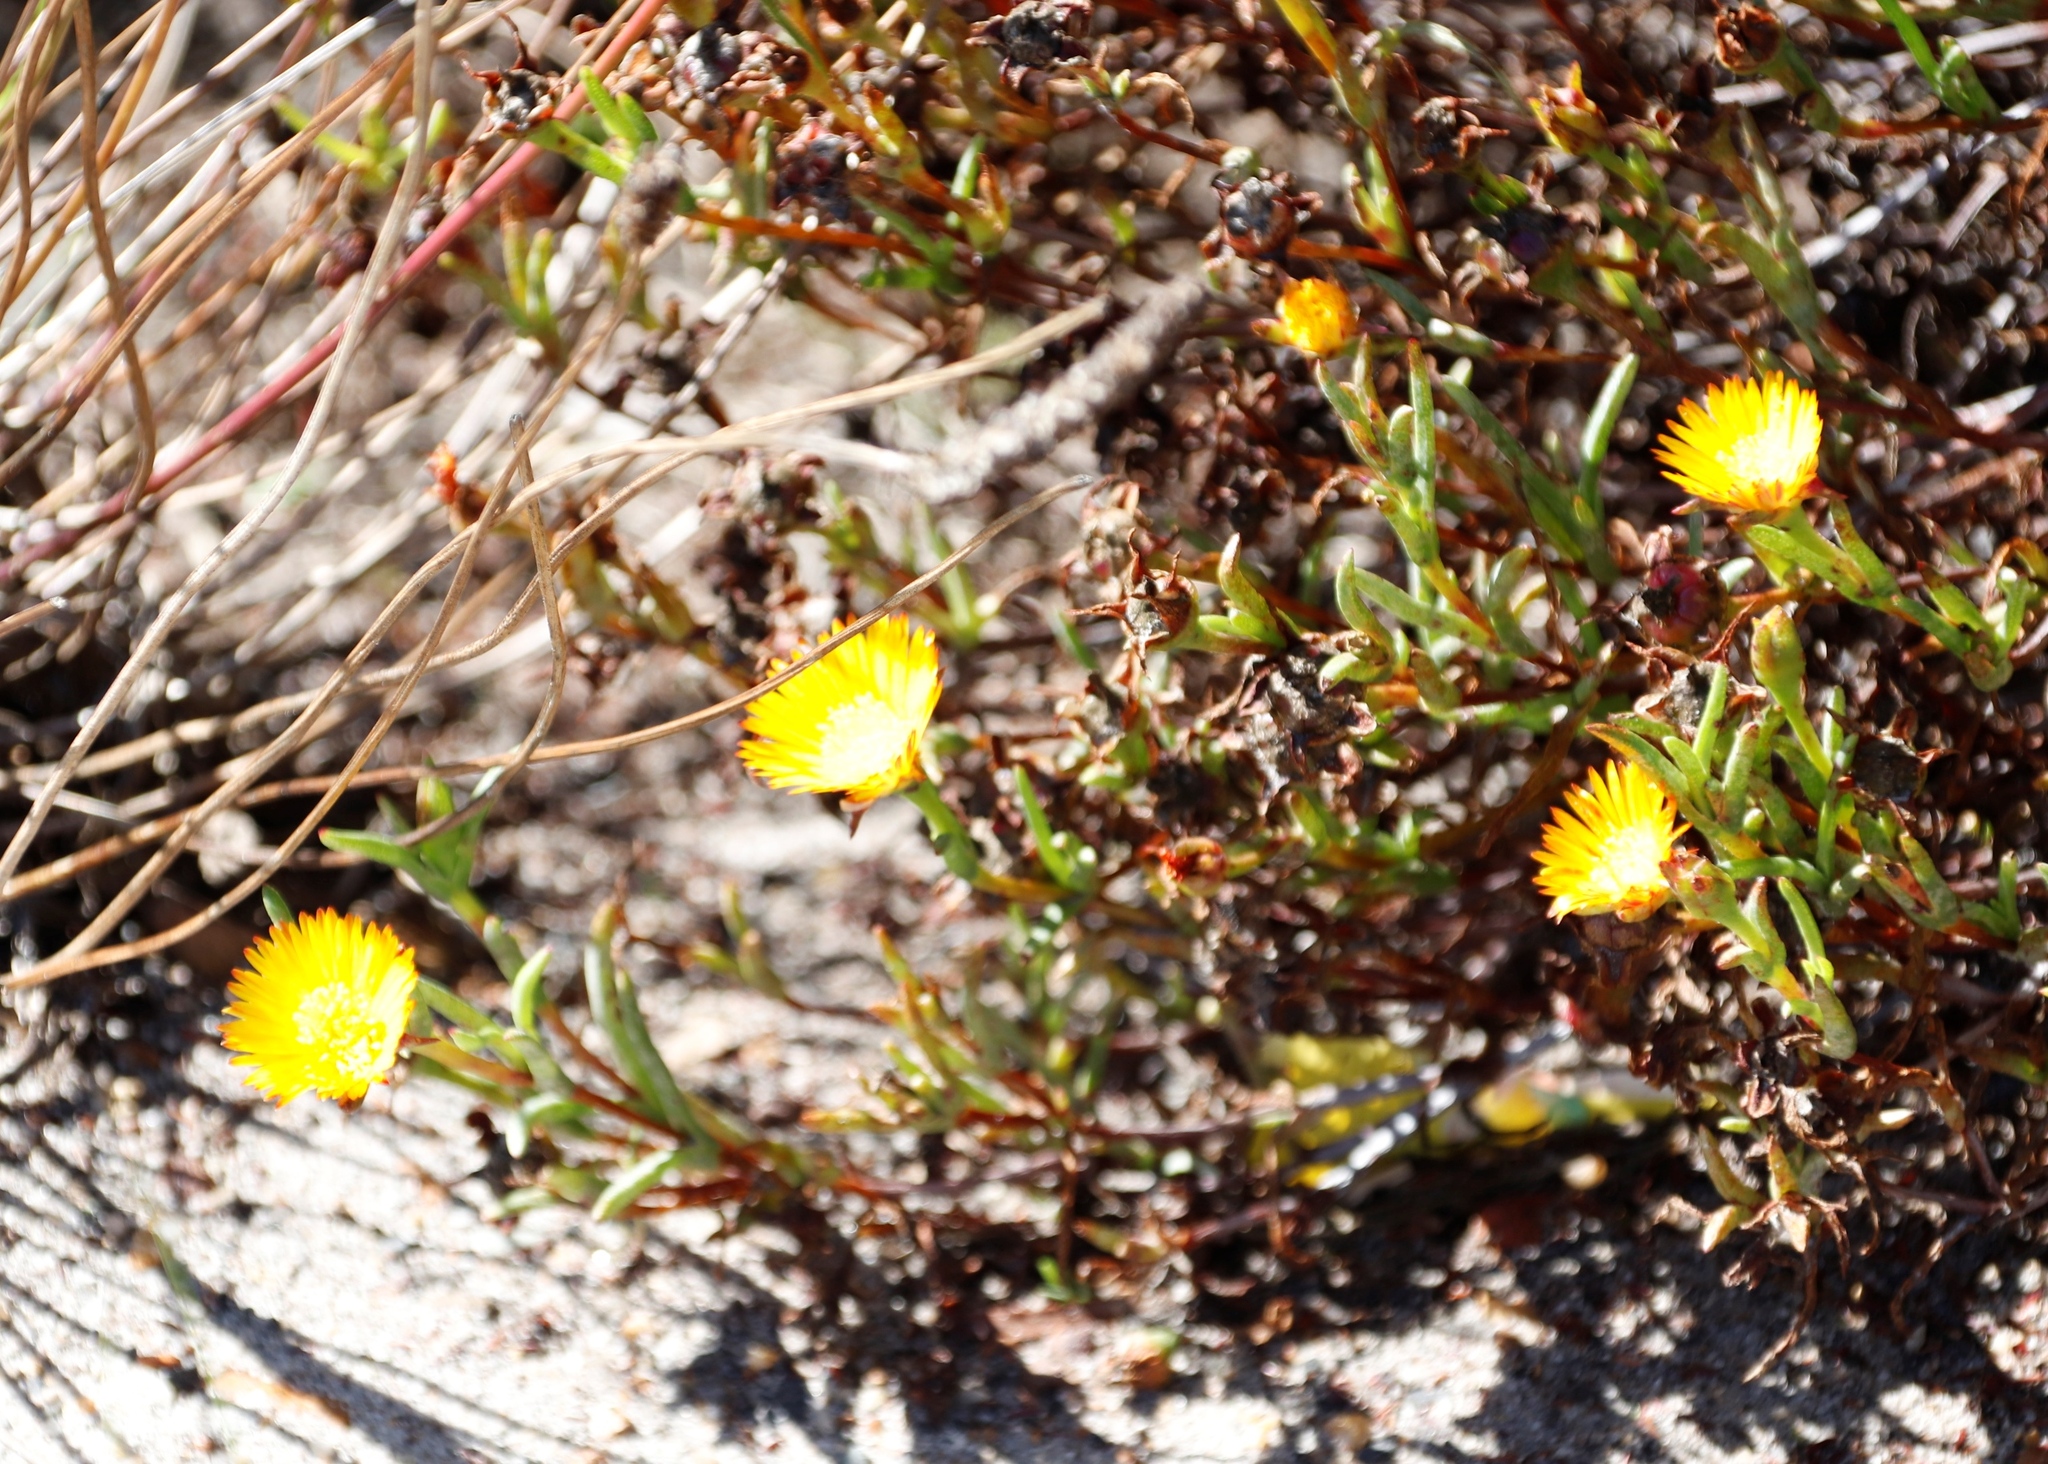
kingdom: Plantae
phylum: Tracheophyta
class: Magnoliopsida
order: Caryophyllales
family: Aizoaceae
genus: Lampranthus
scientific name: Lampranthus bicolor
